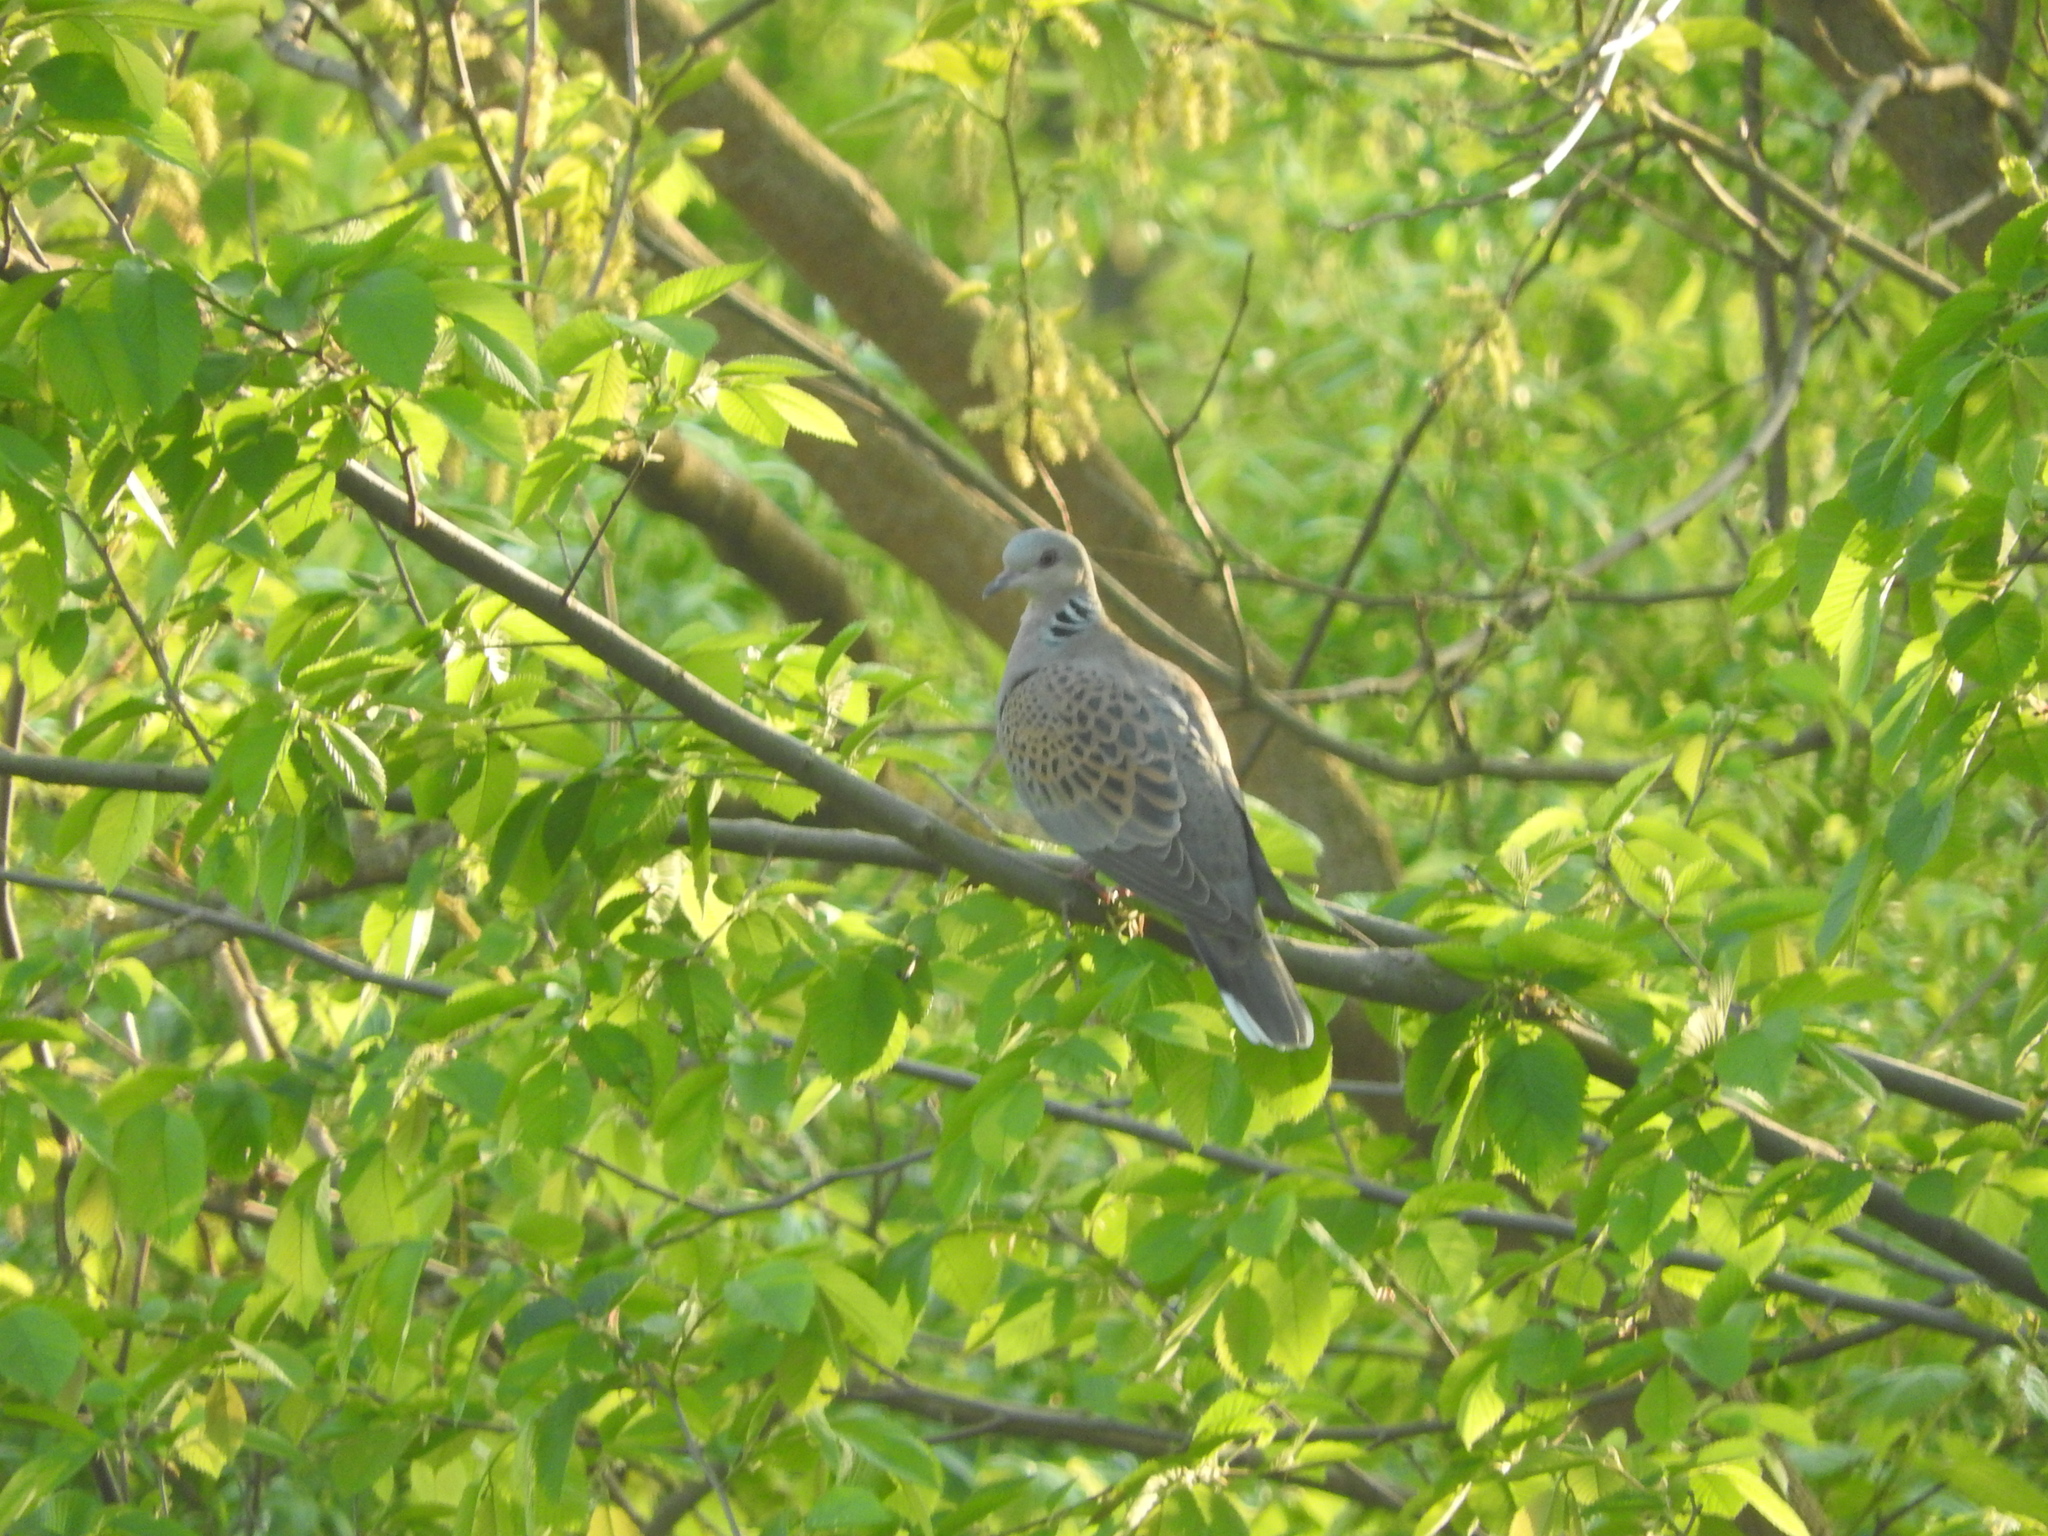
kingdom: Animalia
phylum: Chordata
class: Aves
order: Columbiformes
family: Columbidae
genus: Streptopelia
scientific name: Streptopelia turtur
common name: European turtle dove
